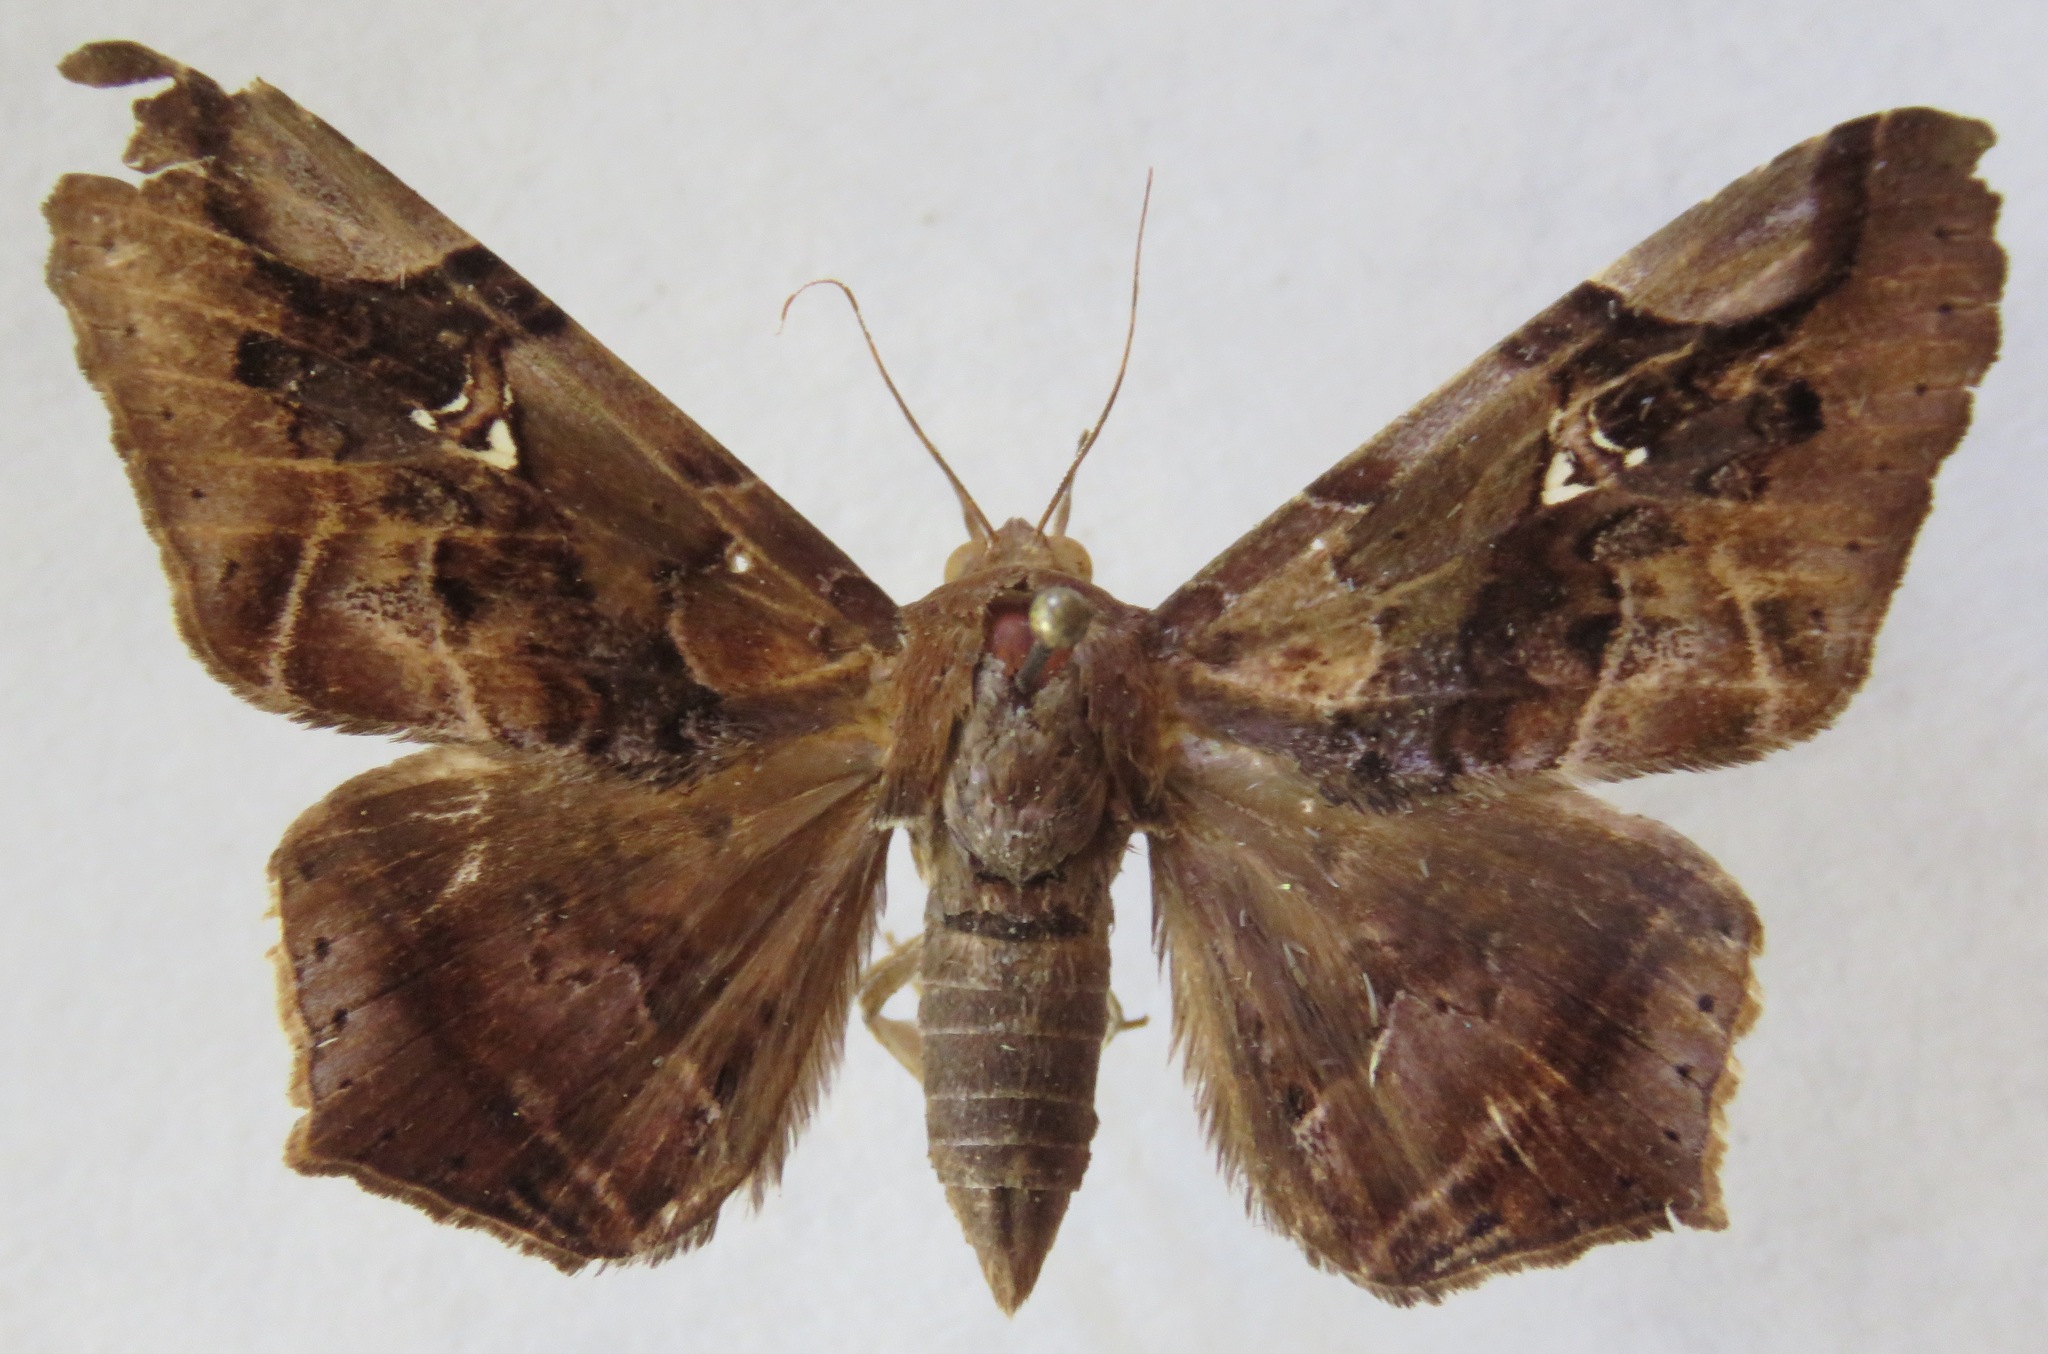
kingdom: Animalia
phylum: Arthropoda
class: Insecta
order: Lepidoptera
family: Erebidae
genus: Euclystis
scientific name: Euclystis guerini
